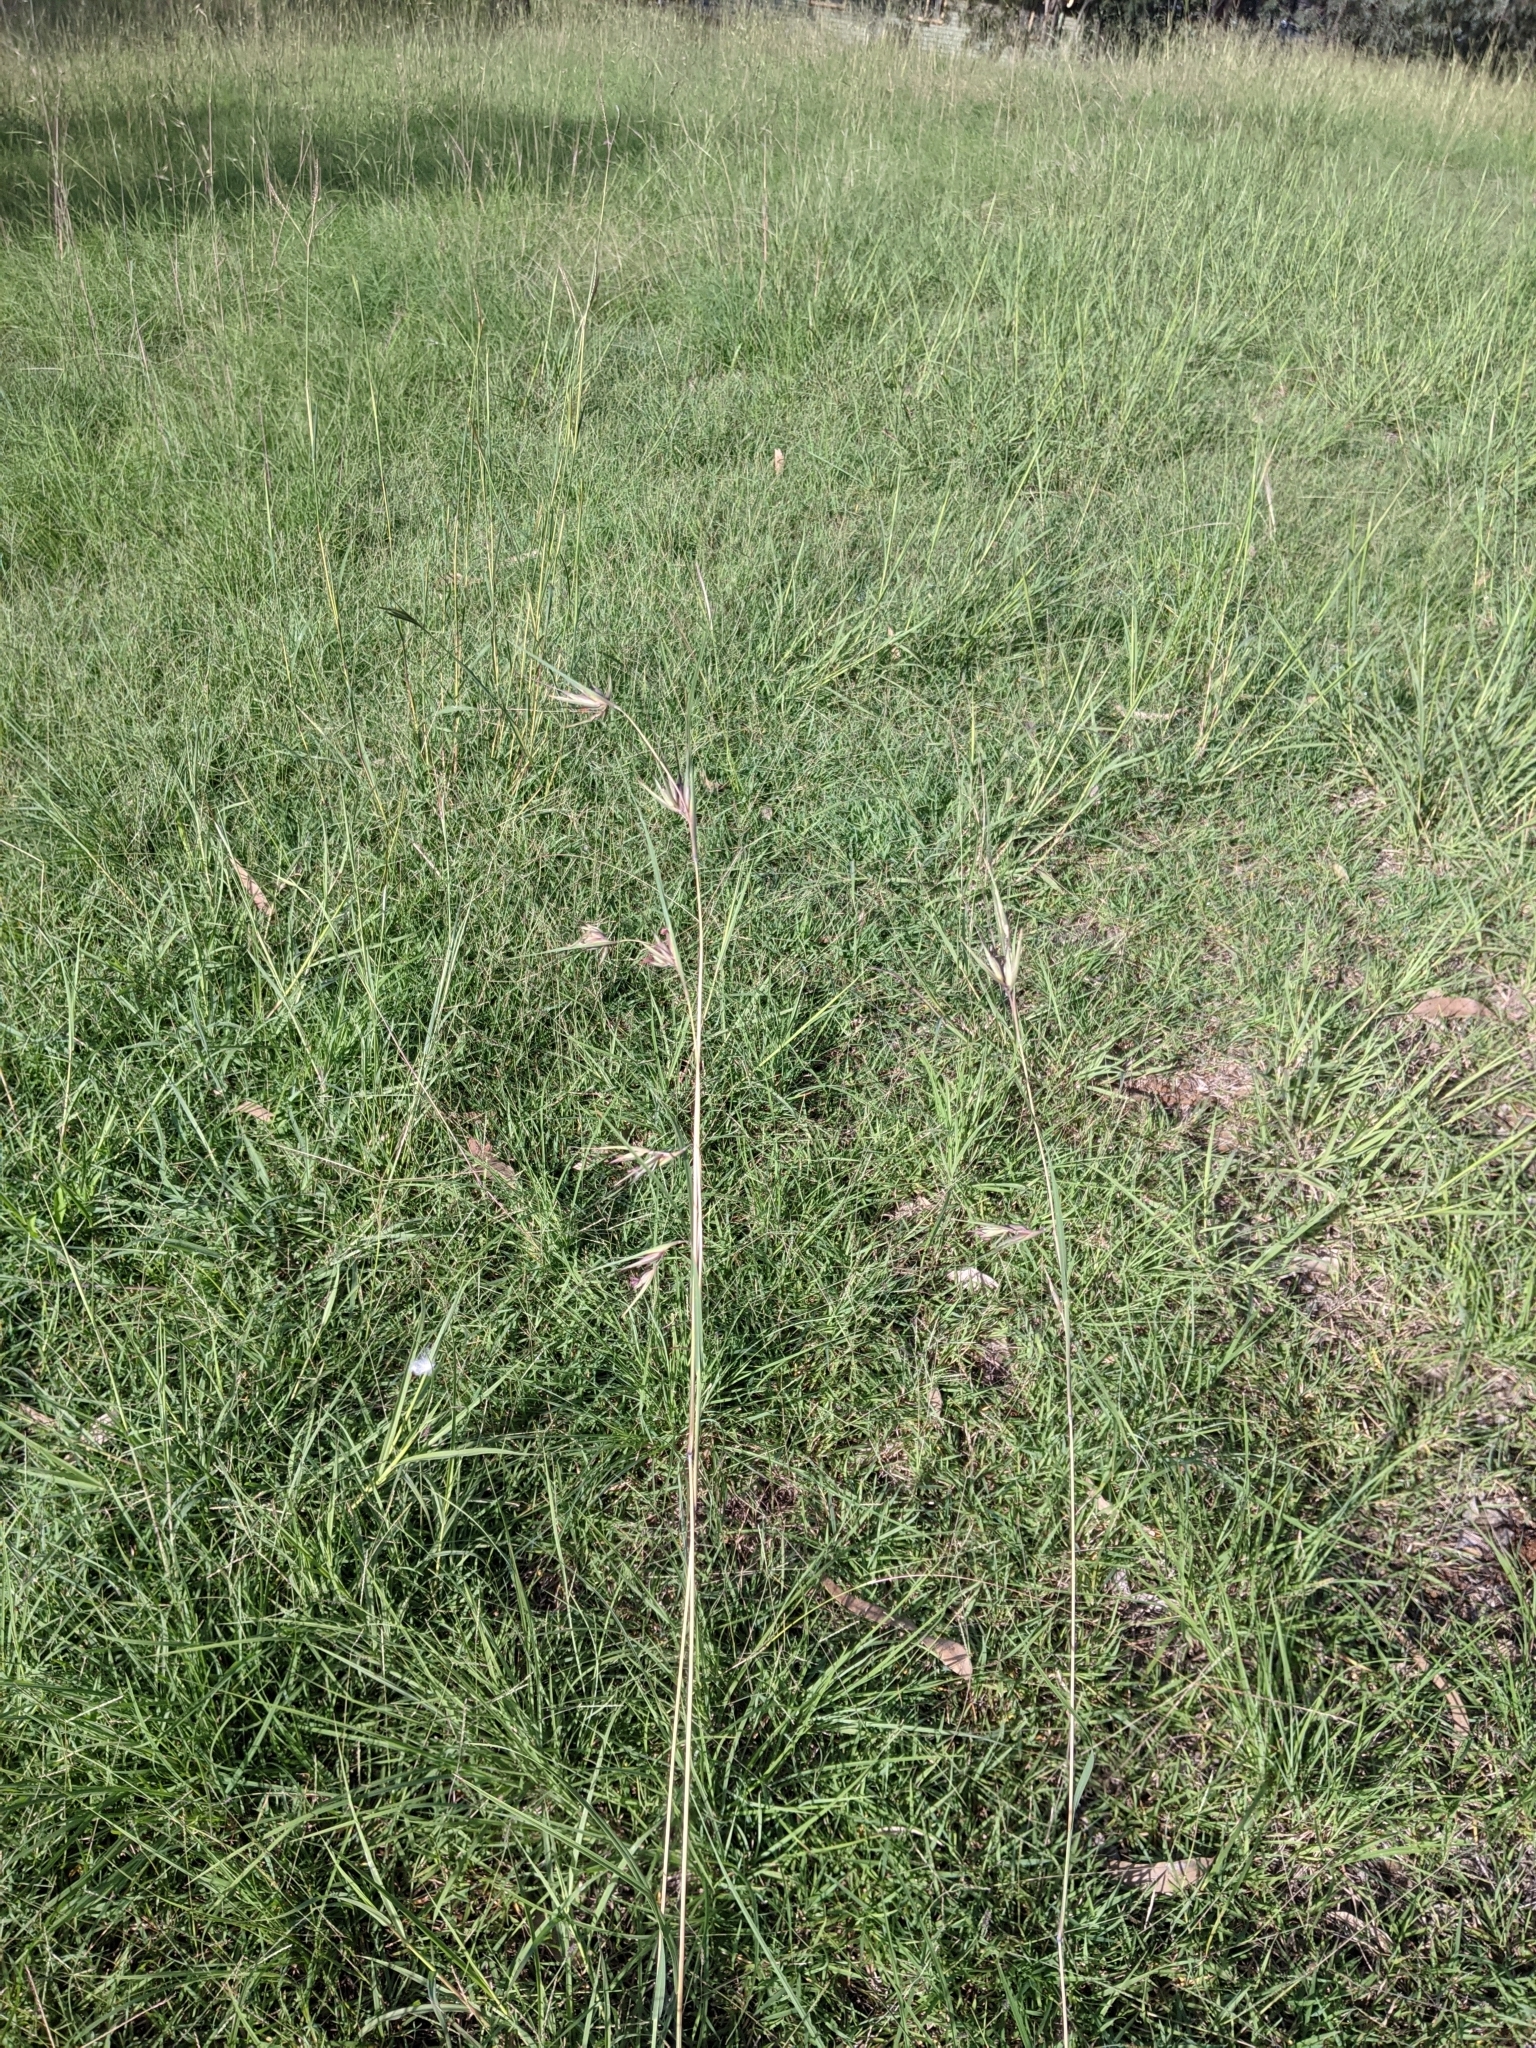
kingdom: Plantae
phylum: Tracheophyta
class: Liliopsida
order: Poales
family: Poaceae
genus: Themeda
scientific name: Themeda triandra
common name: Kangaroo grass
